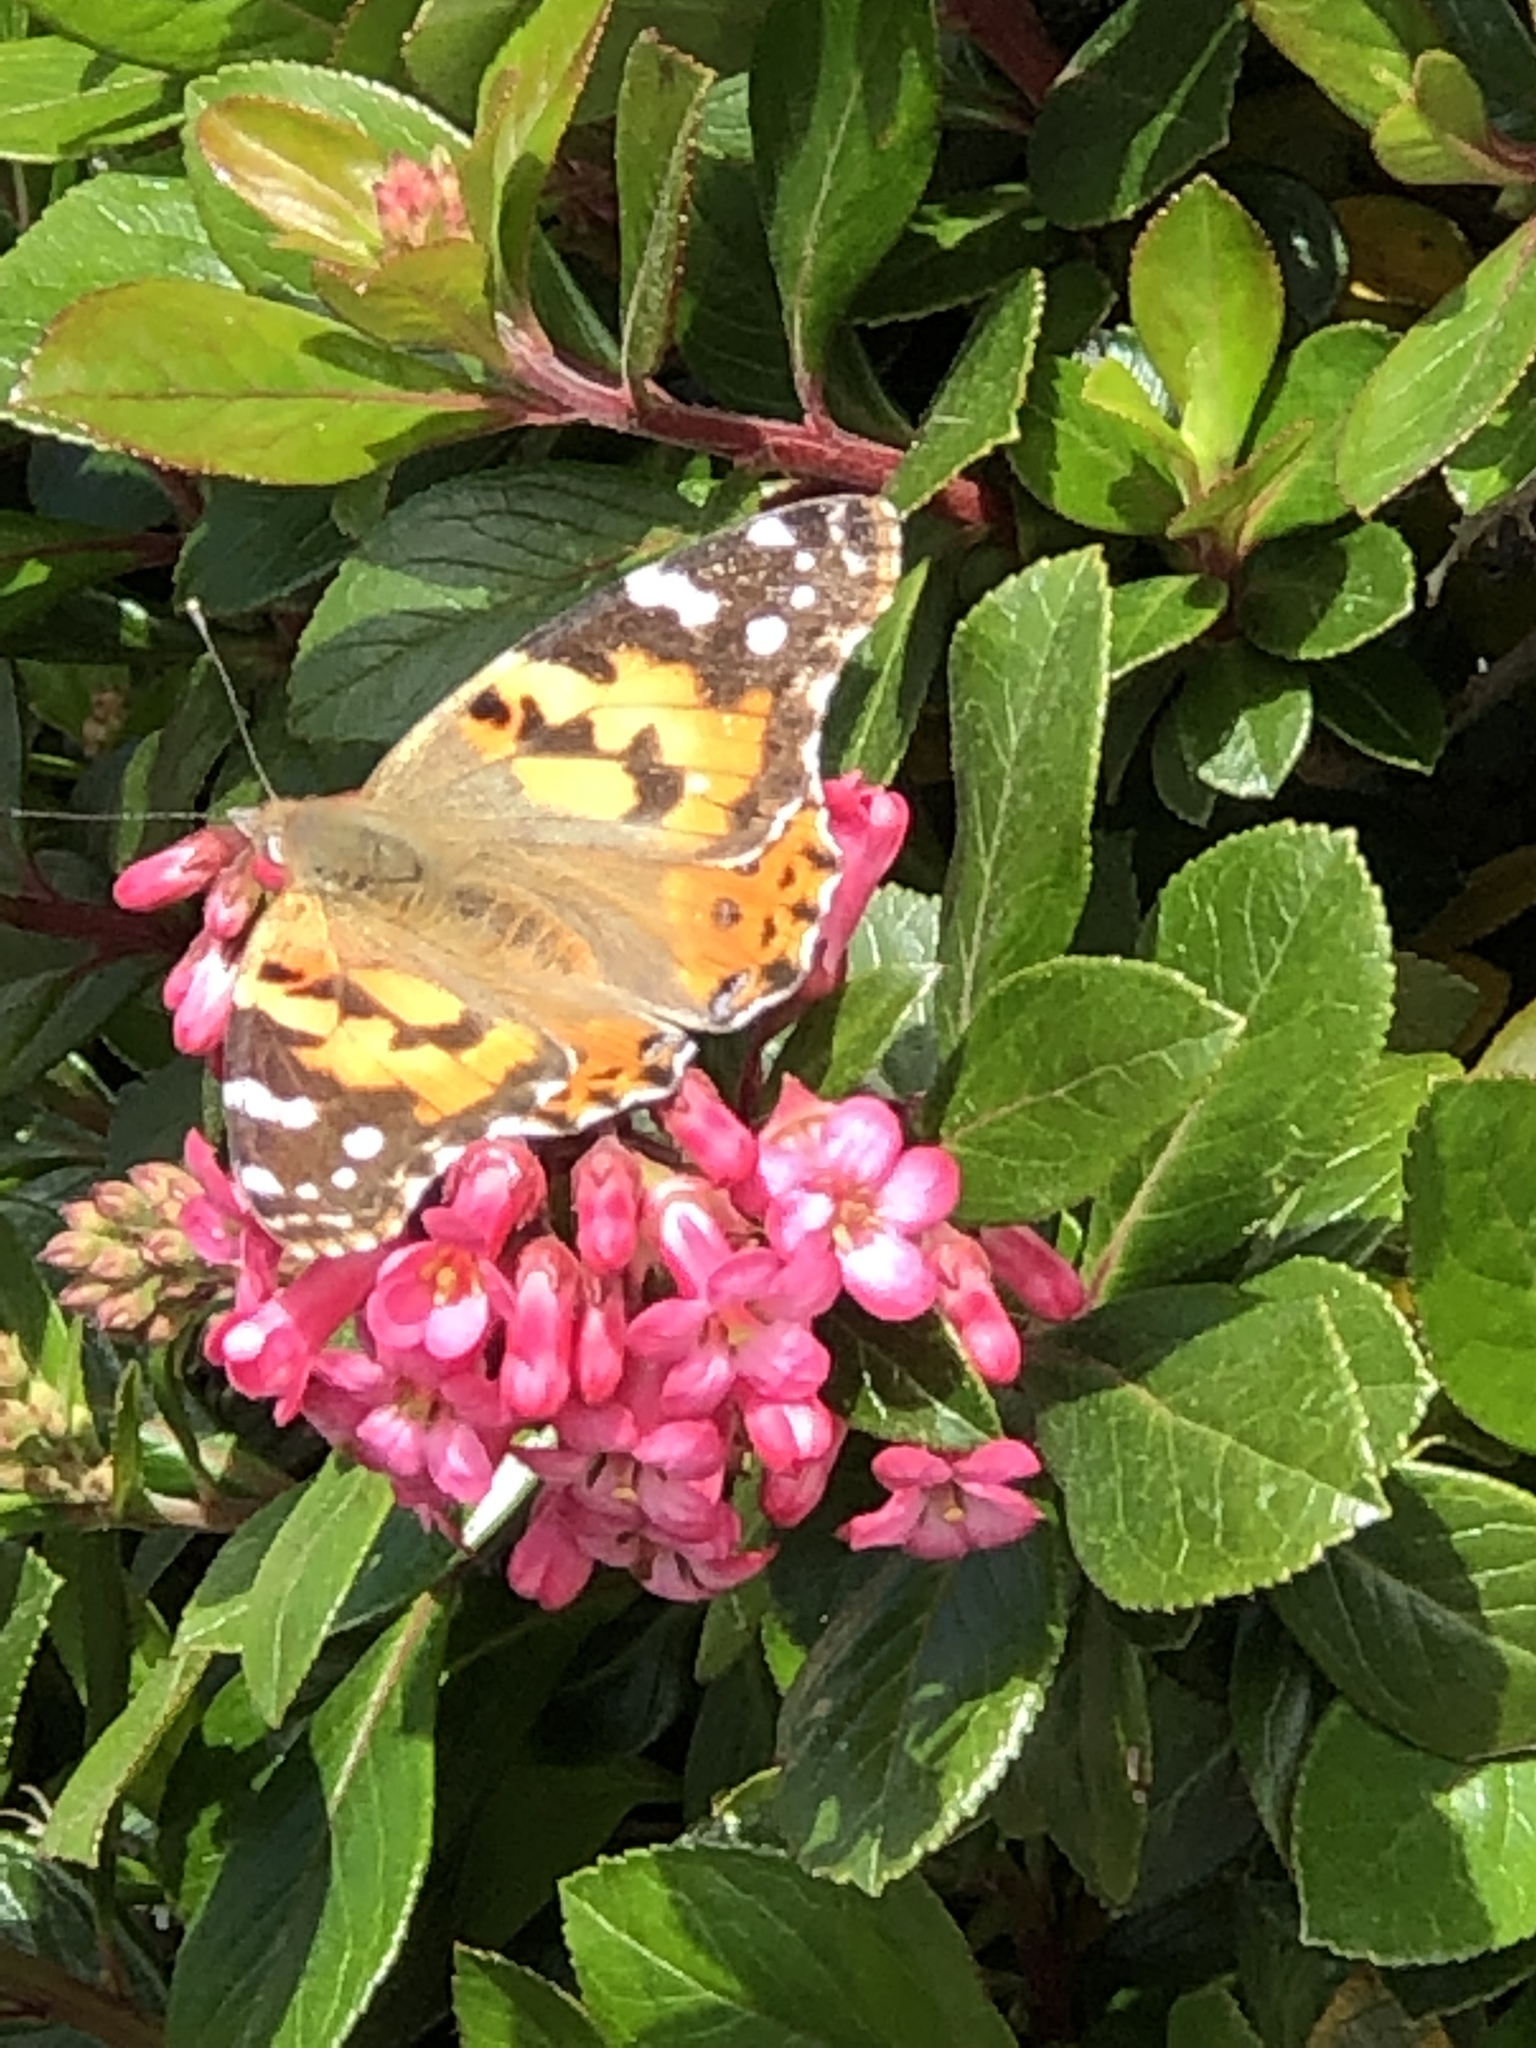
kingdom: Animalia
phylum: Arthropoda
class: Insecta
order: Lepidoptera
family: Nymphalidae
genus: Vanessa
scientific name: Vanessa cardui
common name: Painted lady
